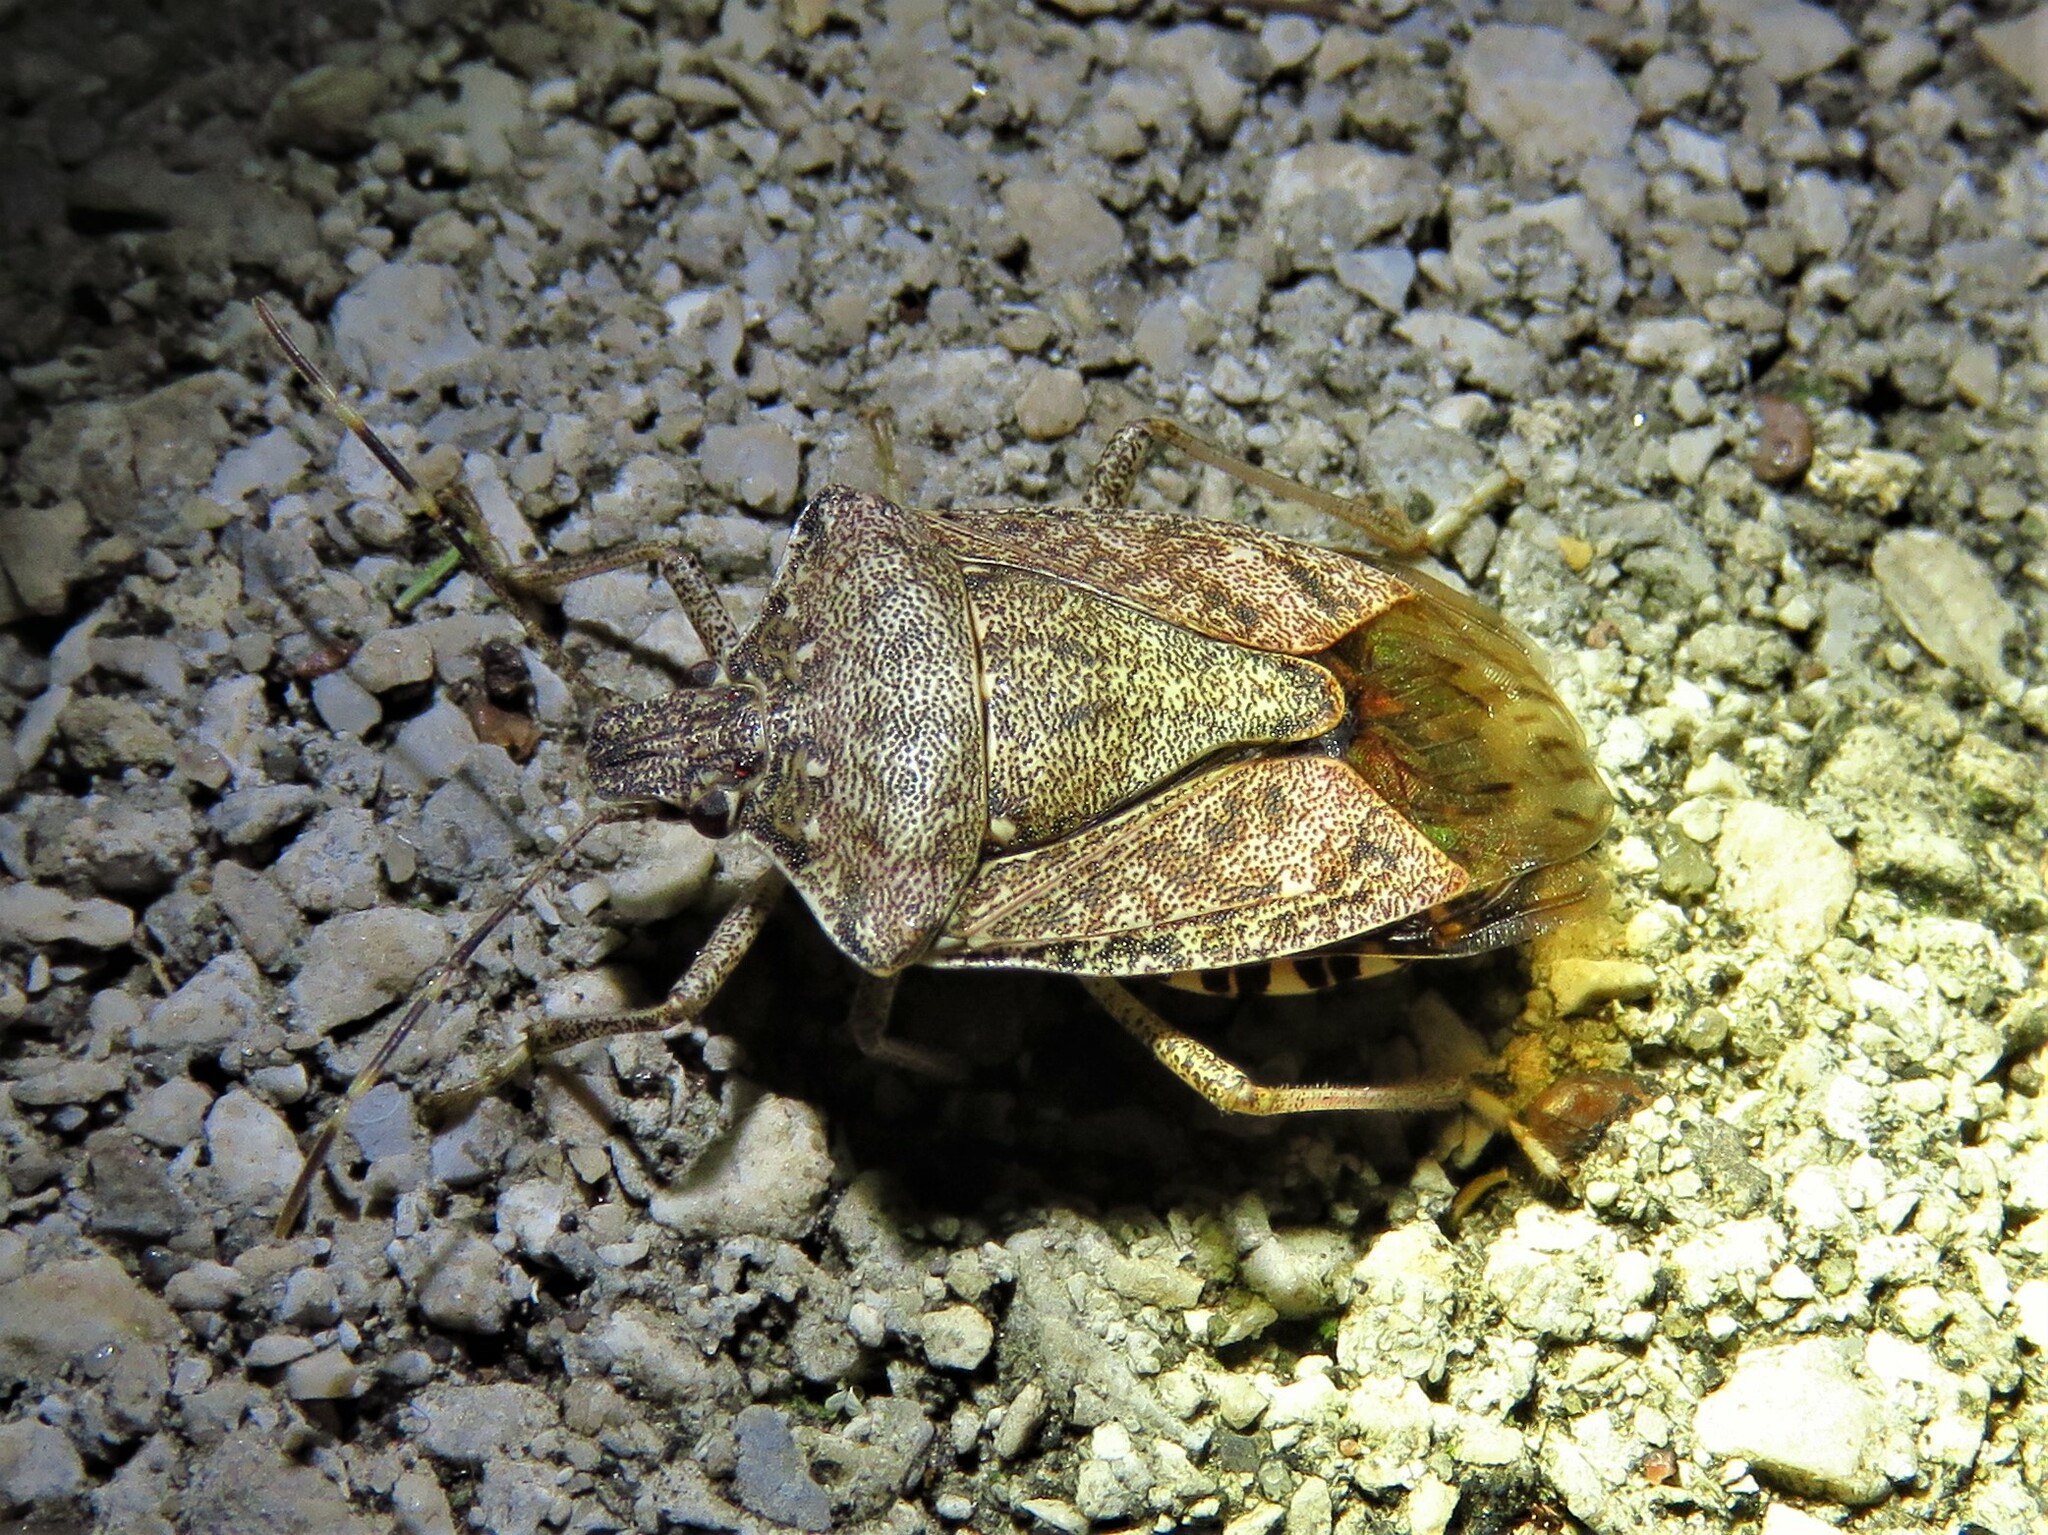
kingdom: Animalia
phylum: Arthropoda
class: Insecta
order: Hemiptera
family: Pentatomidae
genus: Halyomorpha
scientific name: Halyomorpha halys
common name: Brown marmorated stink bug
